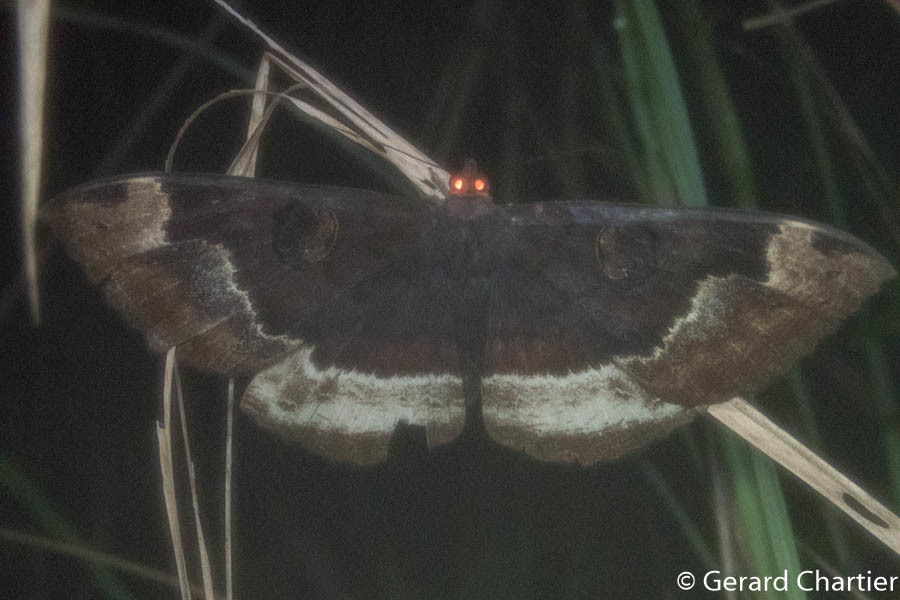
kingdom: Animalia
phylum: Arthropoda
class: Insecta
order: Lepidoptera
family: Erebidae
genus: Erebus
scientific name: Erebus caprimulgus
